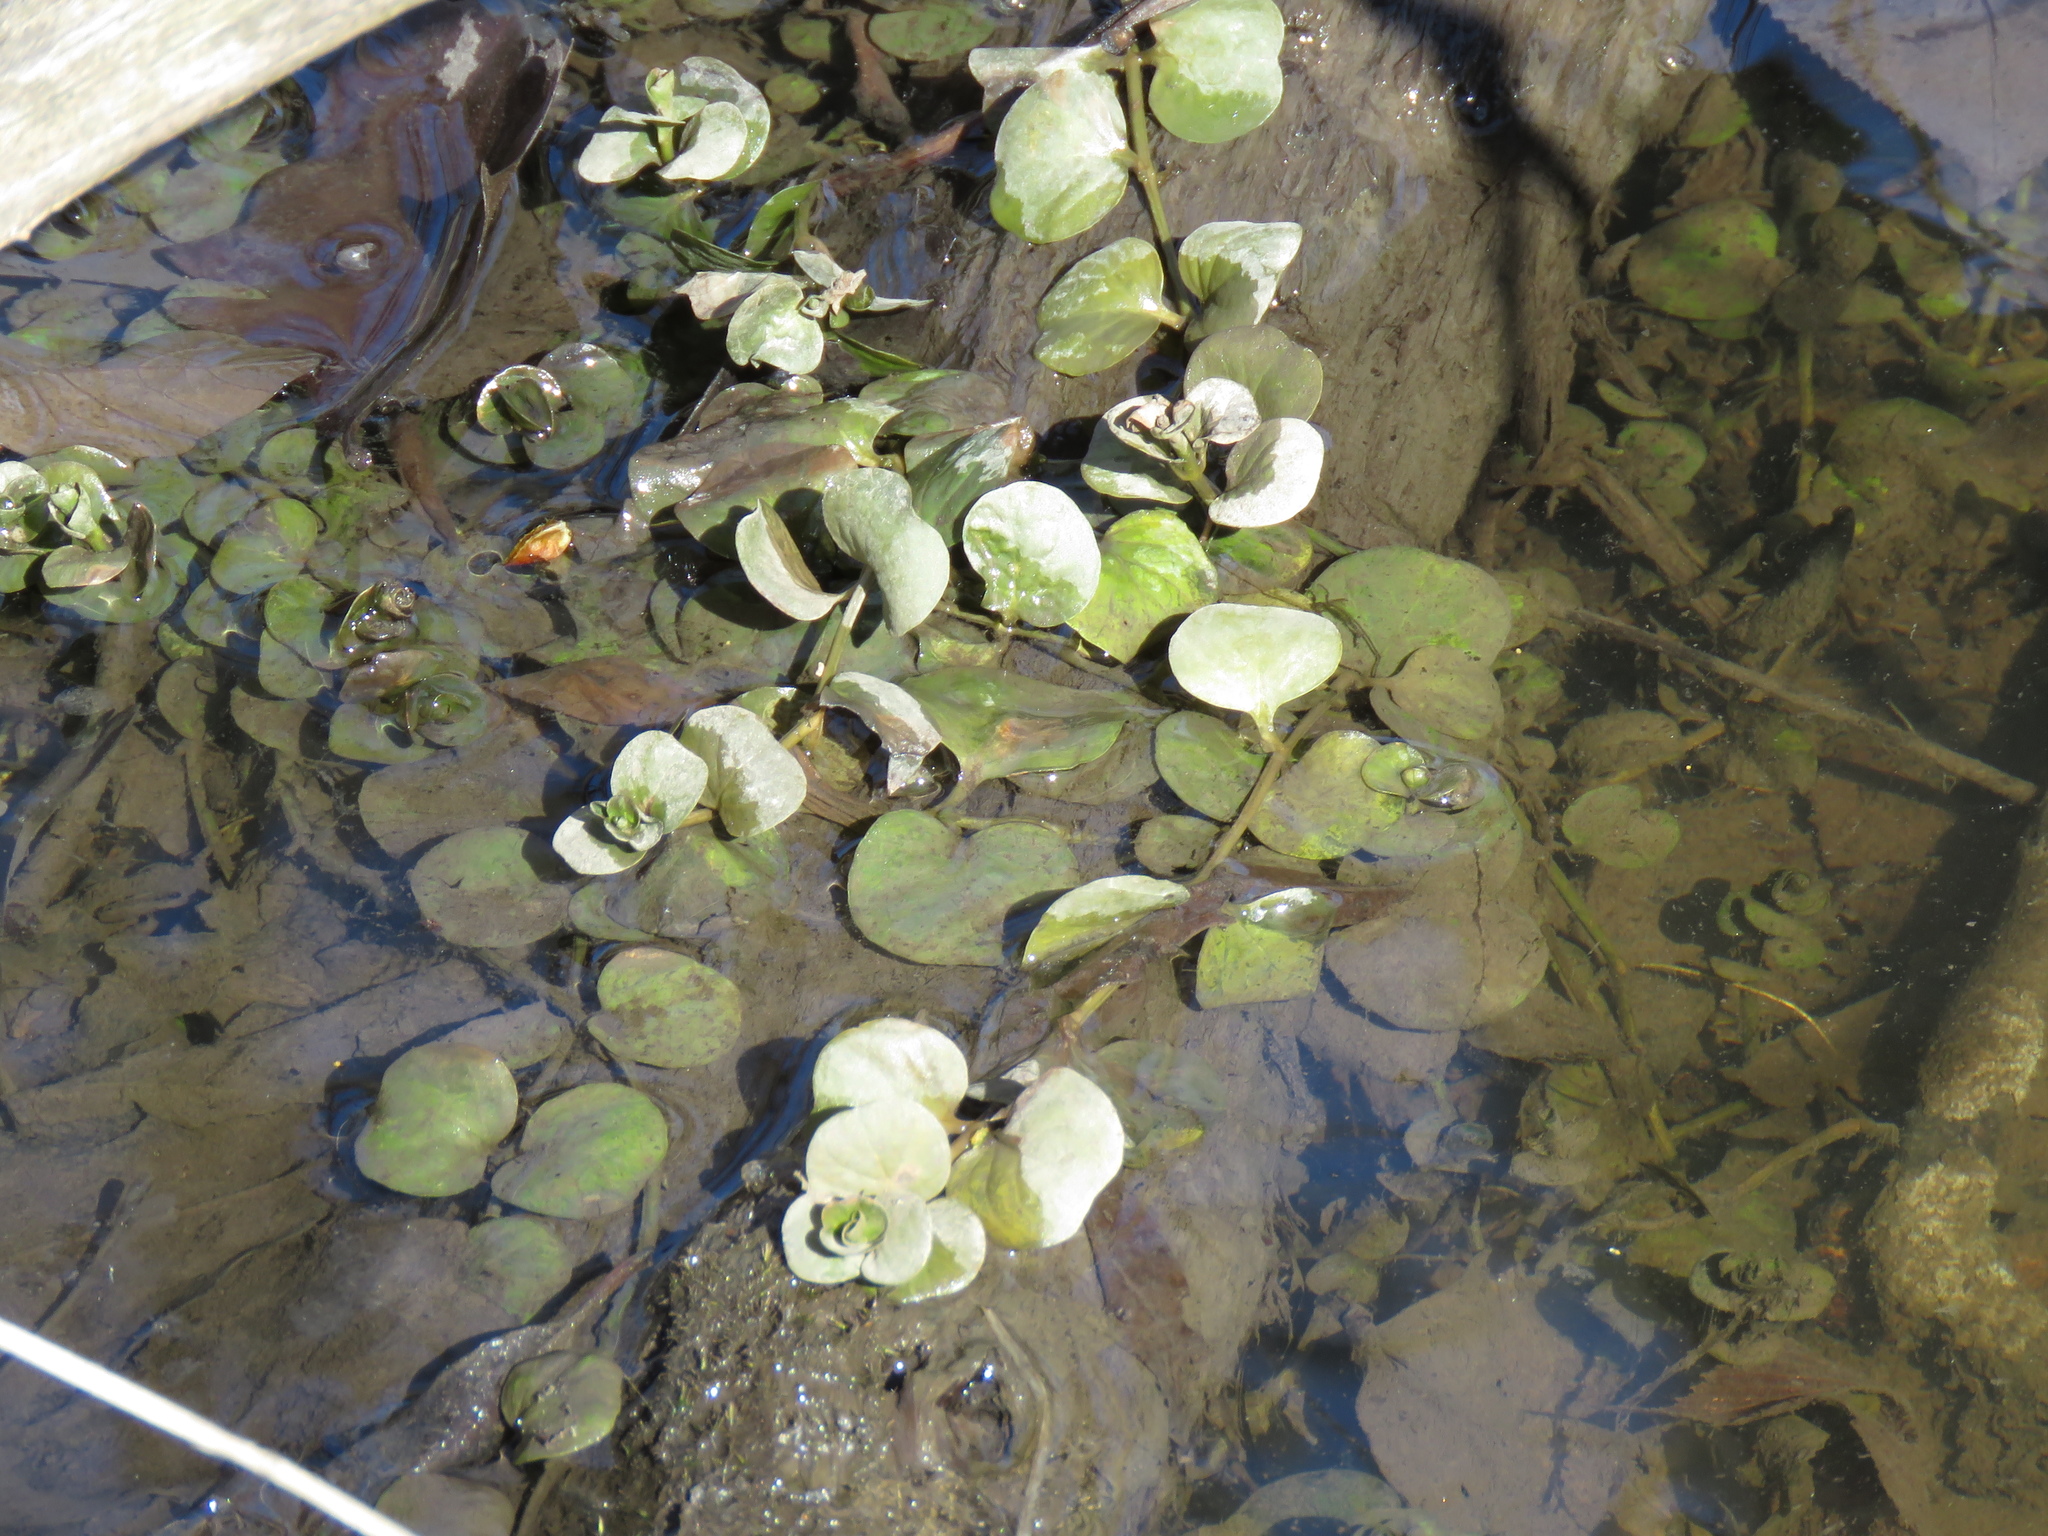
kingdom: Plantae
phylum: Tracheophyta
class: Magnoliopsida
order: Ericales
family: Primulaceae
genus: Lysimachia
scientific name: Lysimachia nummularia
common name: Moneywort
